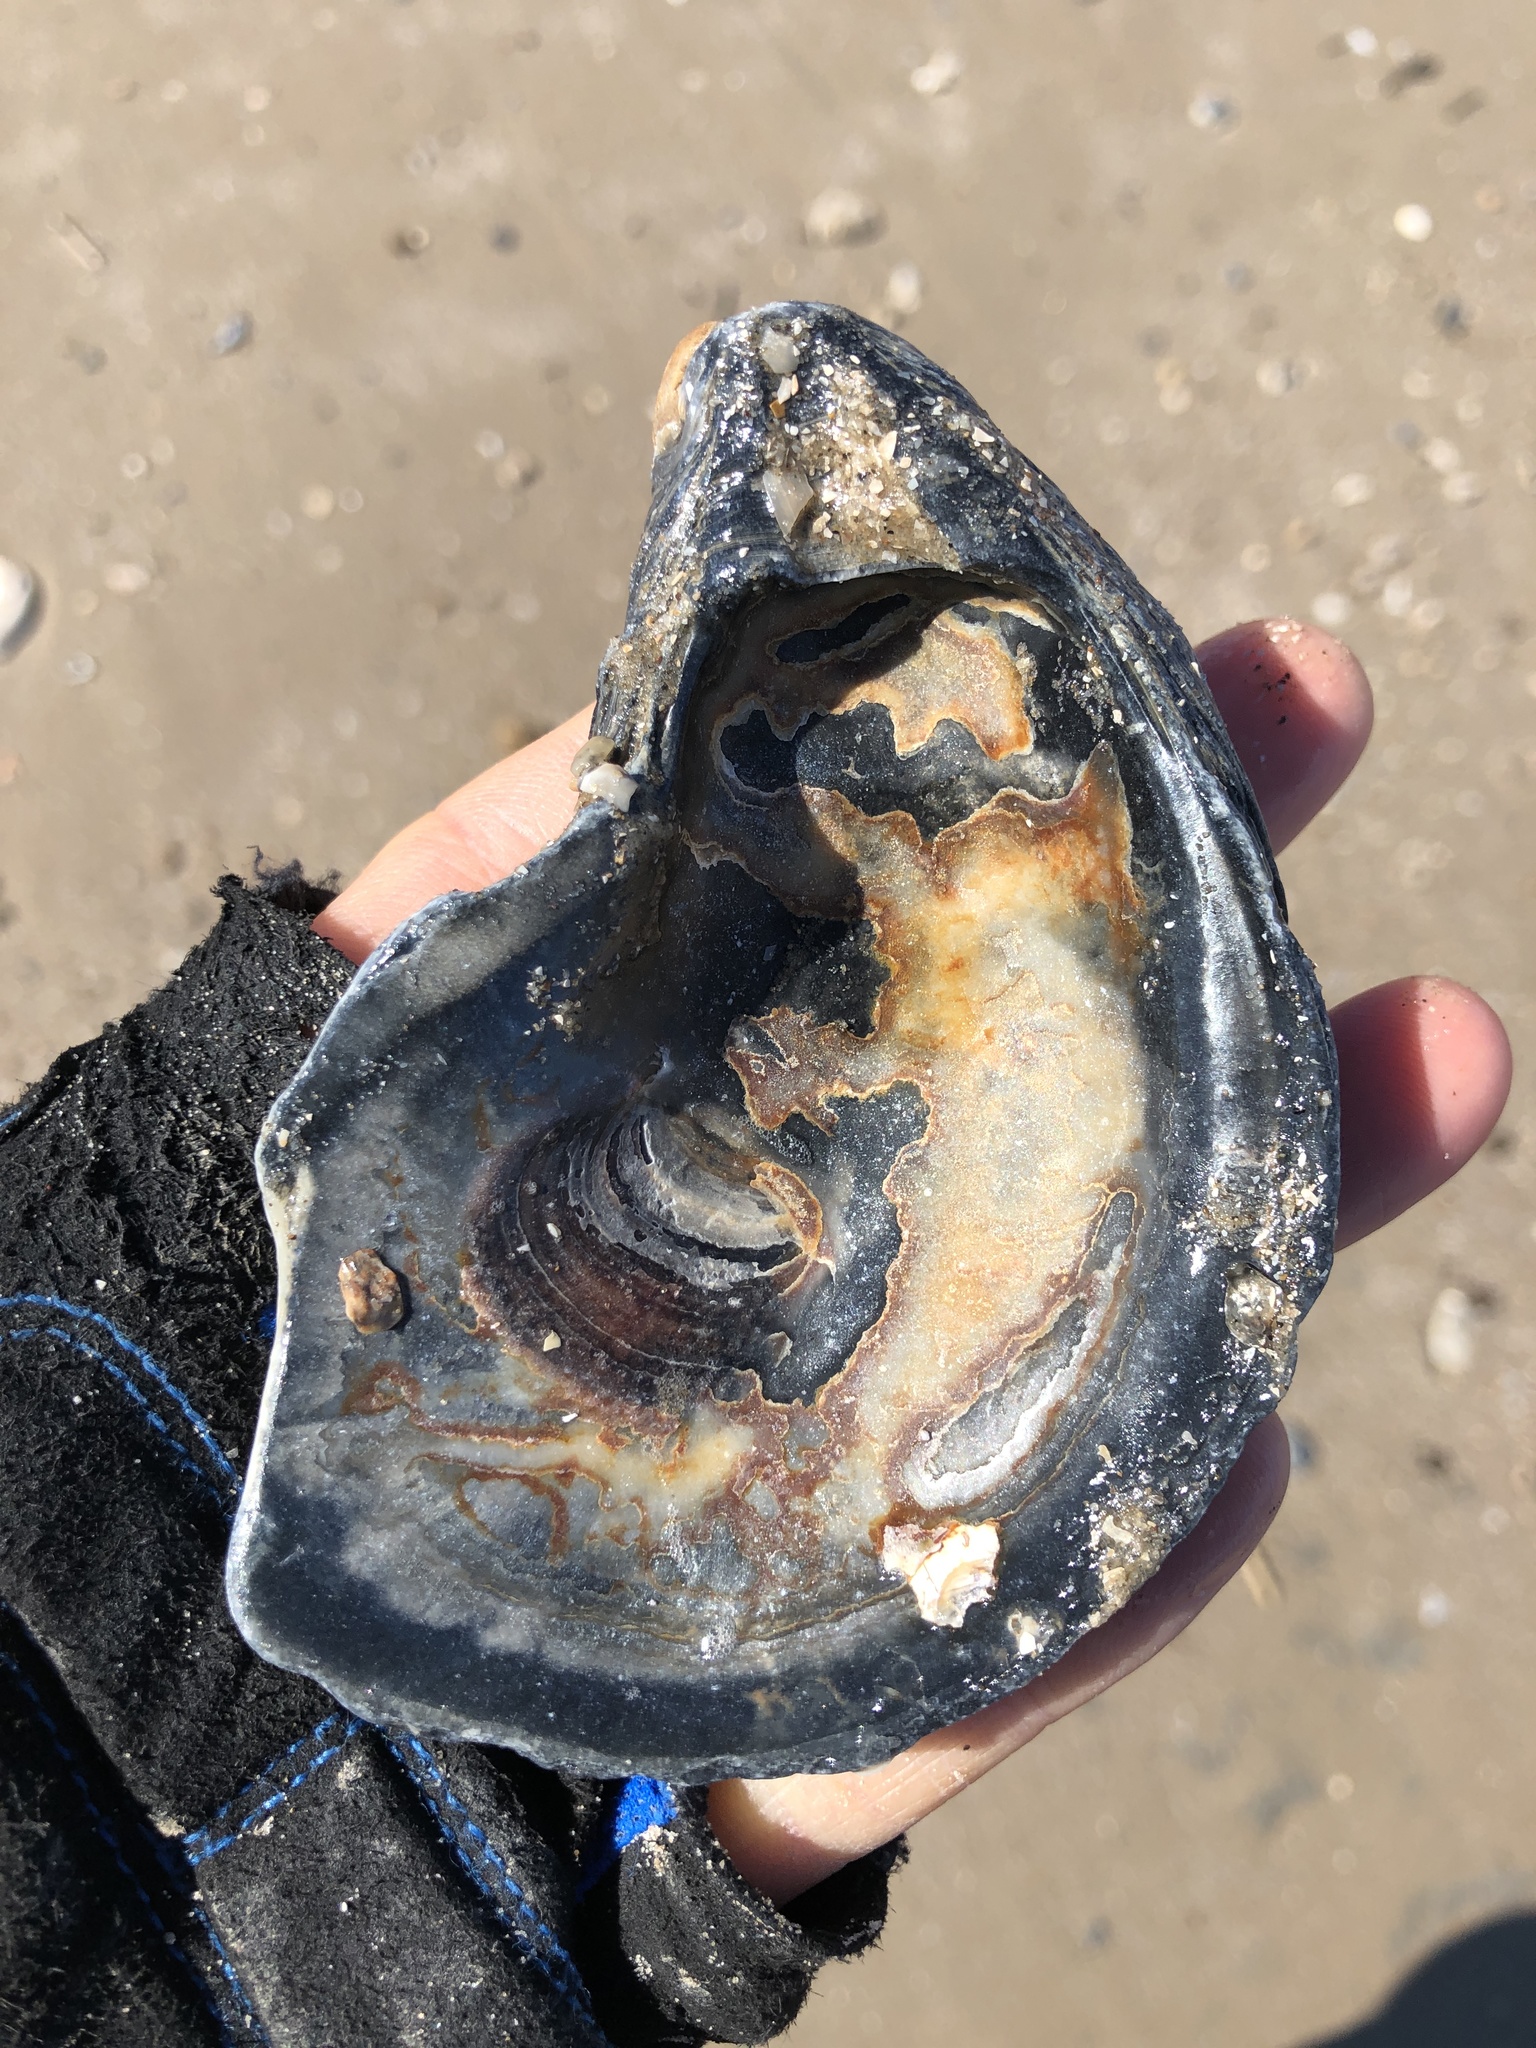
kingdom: Animalia
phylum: Mollusca
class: Bivalvia
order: Ostreida
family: Ostreidae
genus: Crassostrea
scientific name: Crassostrea virginica
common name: American oyster
